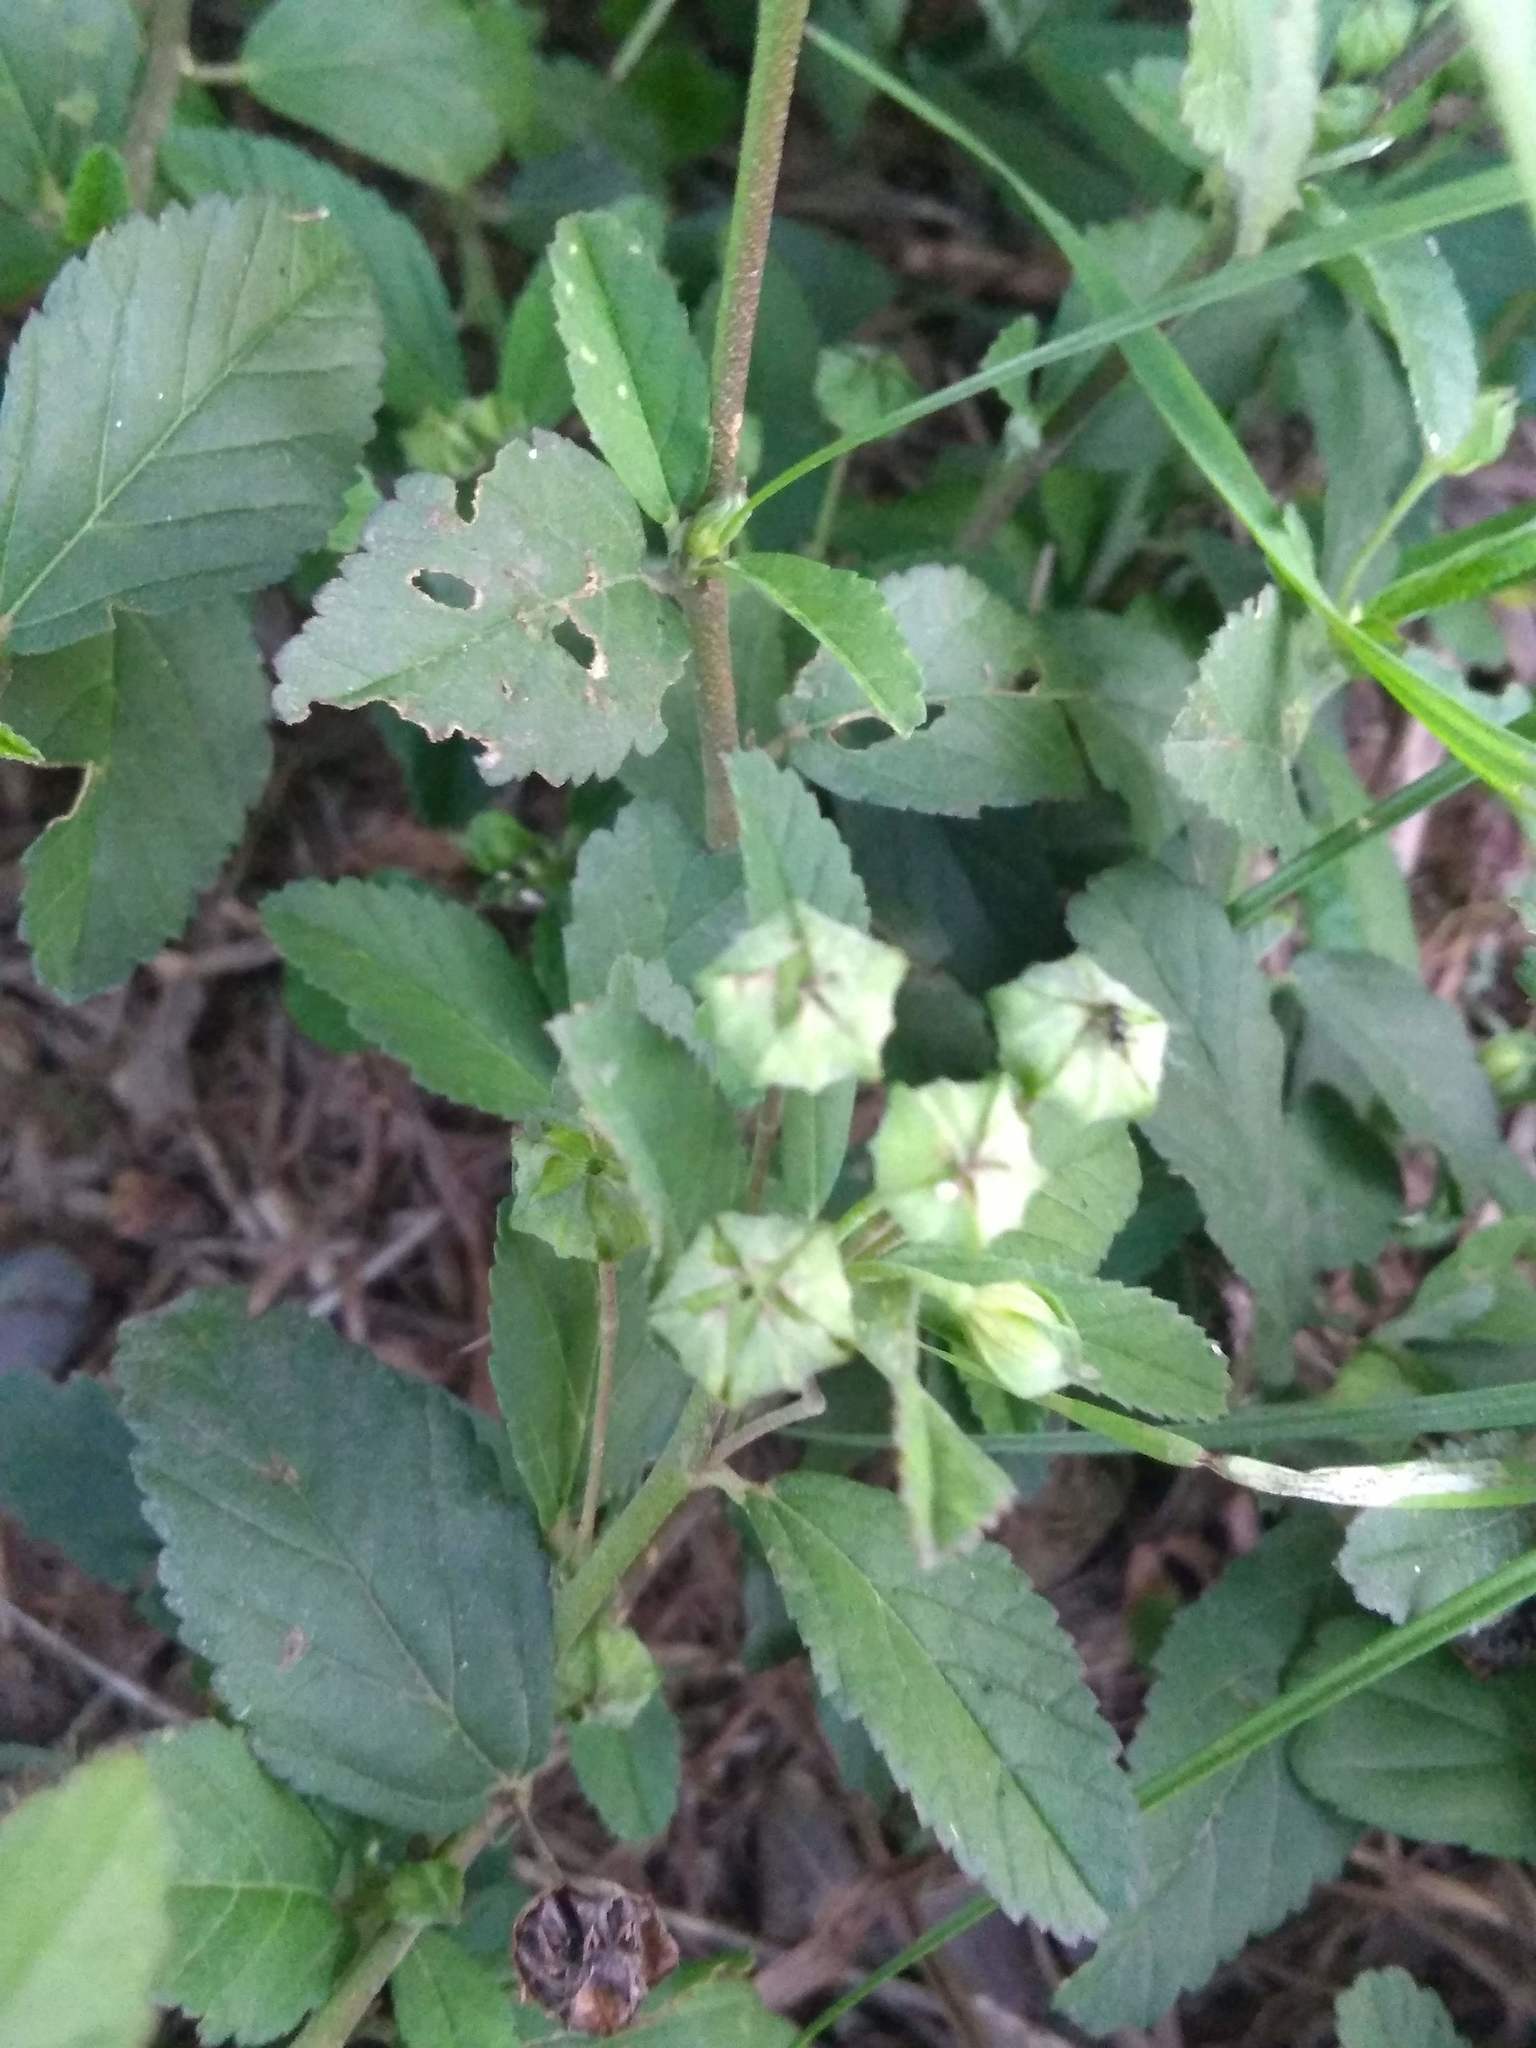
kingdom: Plantae
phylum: Tracheophyta
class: Magnoliopsida
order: Malvales
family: Malvaceae
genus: Sida
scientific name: Sida rhombifolia
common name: Queensland-hemp
